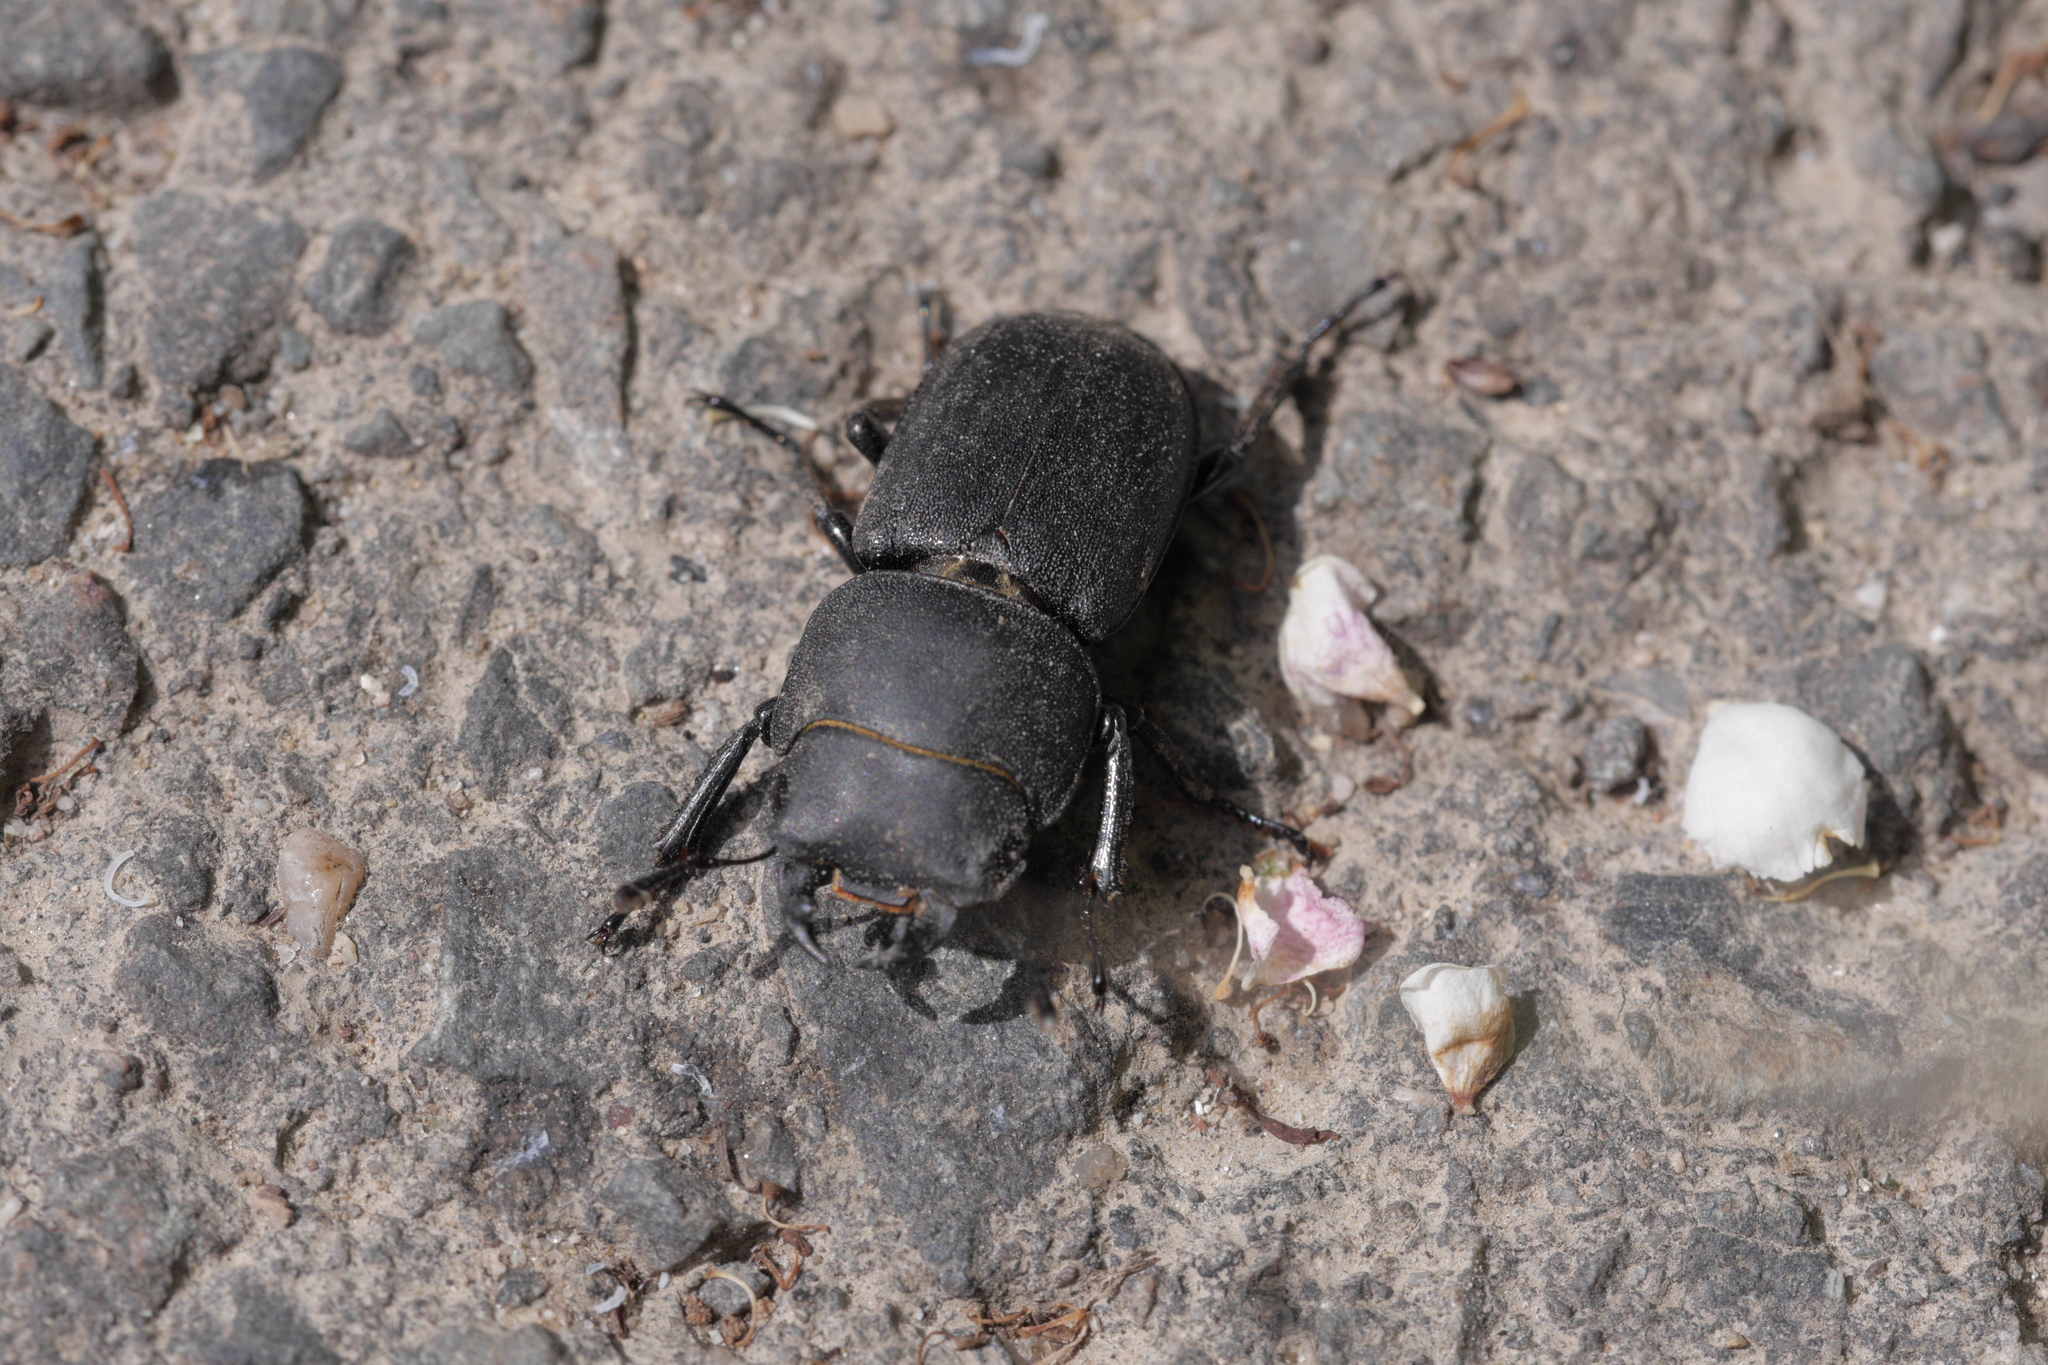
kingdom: Animalia
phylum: Arthropoda
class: Insecta
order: Coleoptera
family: Lucanidae
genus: Dorcus
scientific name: Dorcus parallelipipedus
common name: Lesser stag beetle
